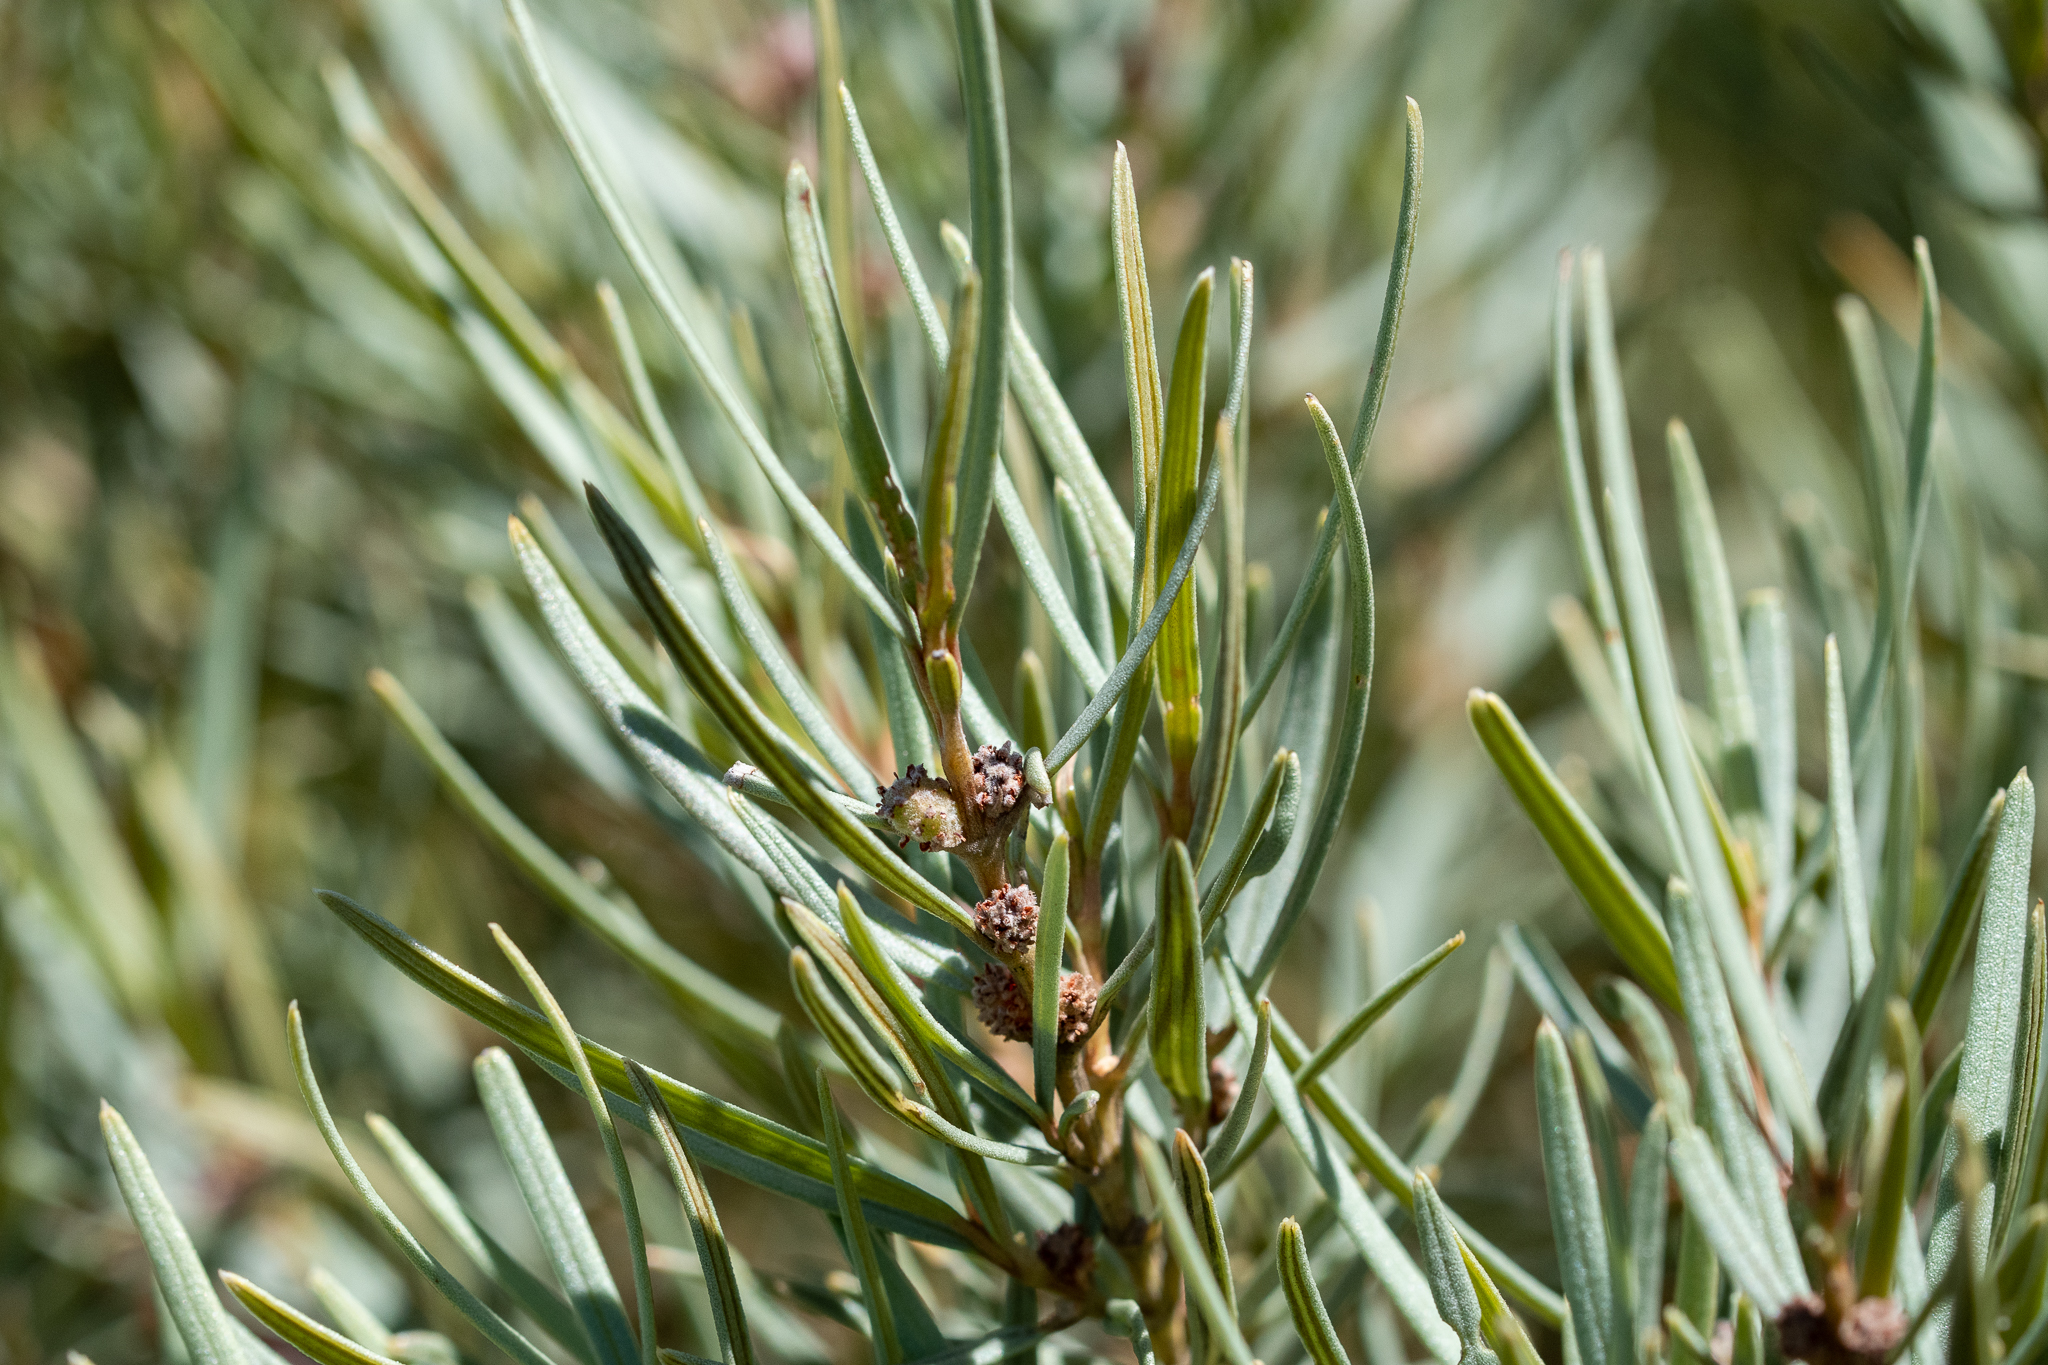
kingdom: Plantae
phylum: Tracheophyta
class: Magnoliopsida
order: Cornales
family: Grubbiaceae
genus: Grubbia
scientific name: Grubbia tomentosa
